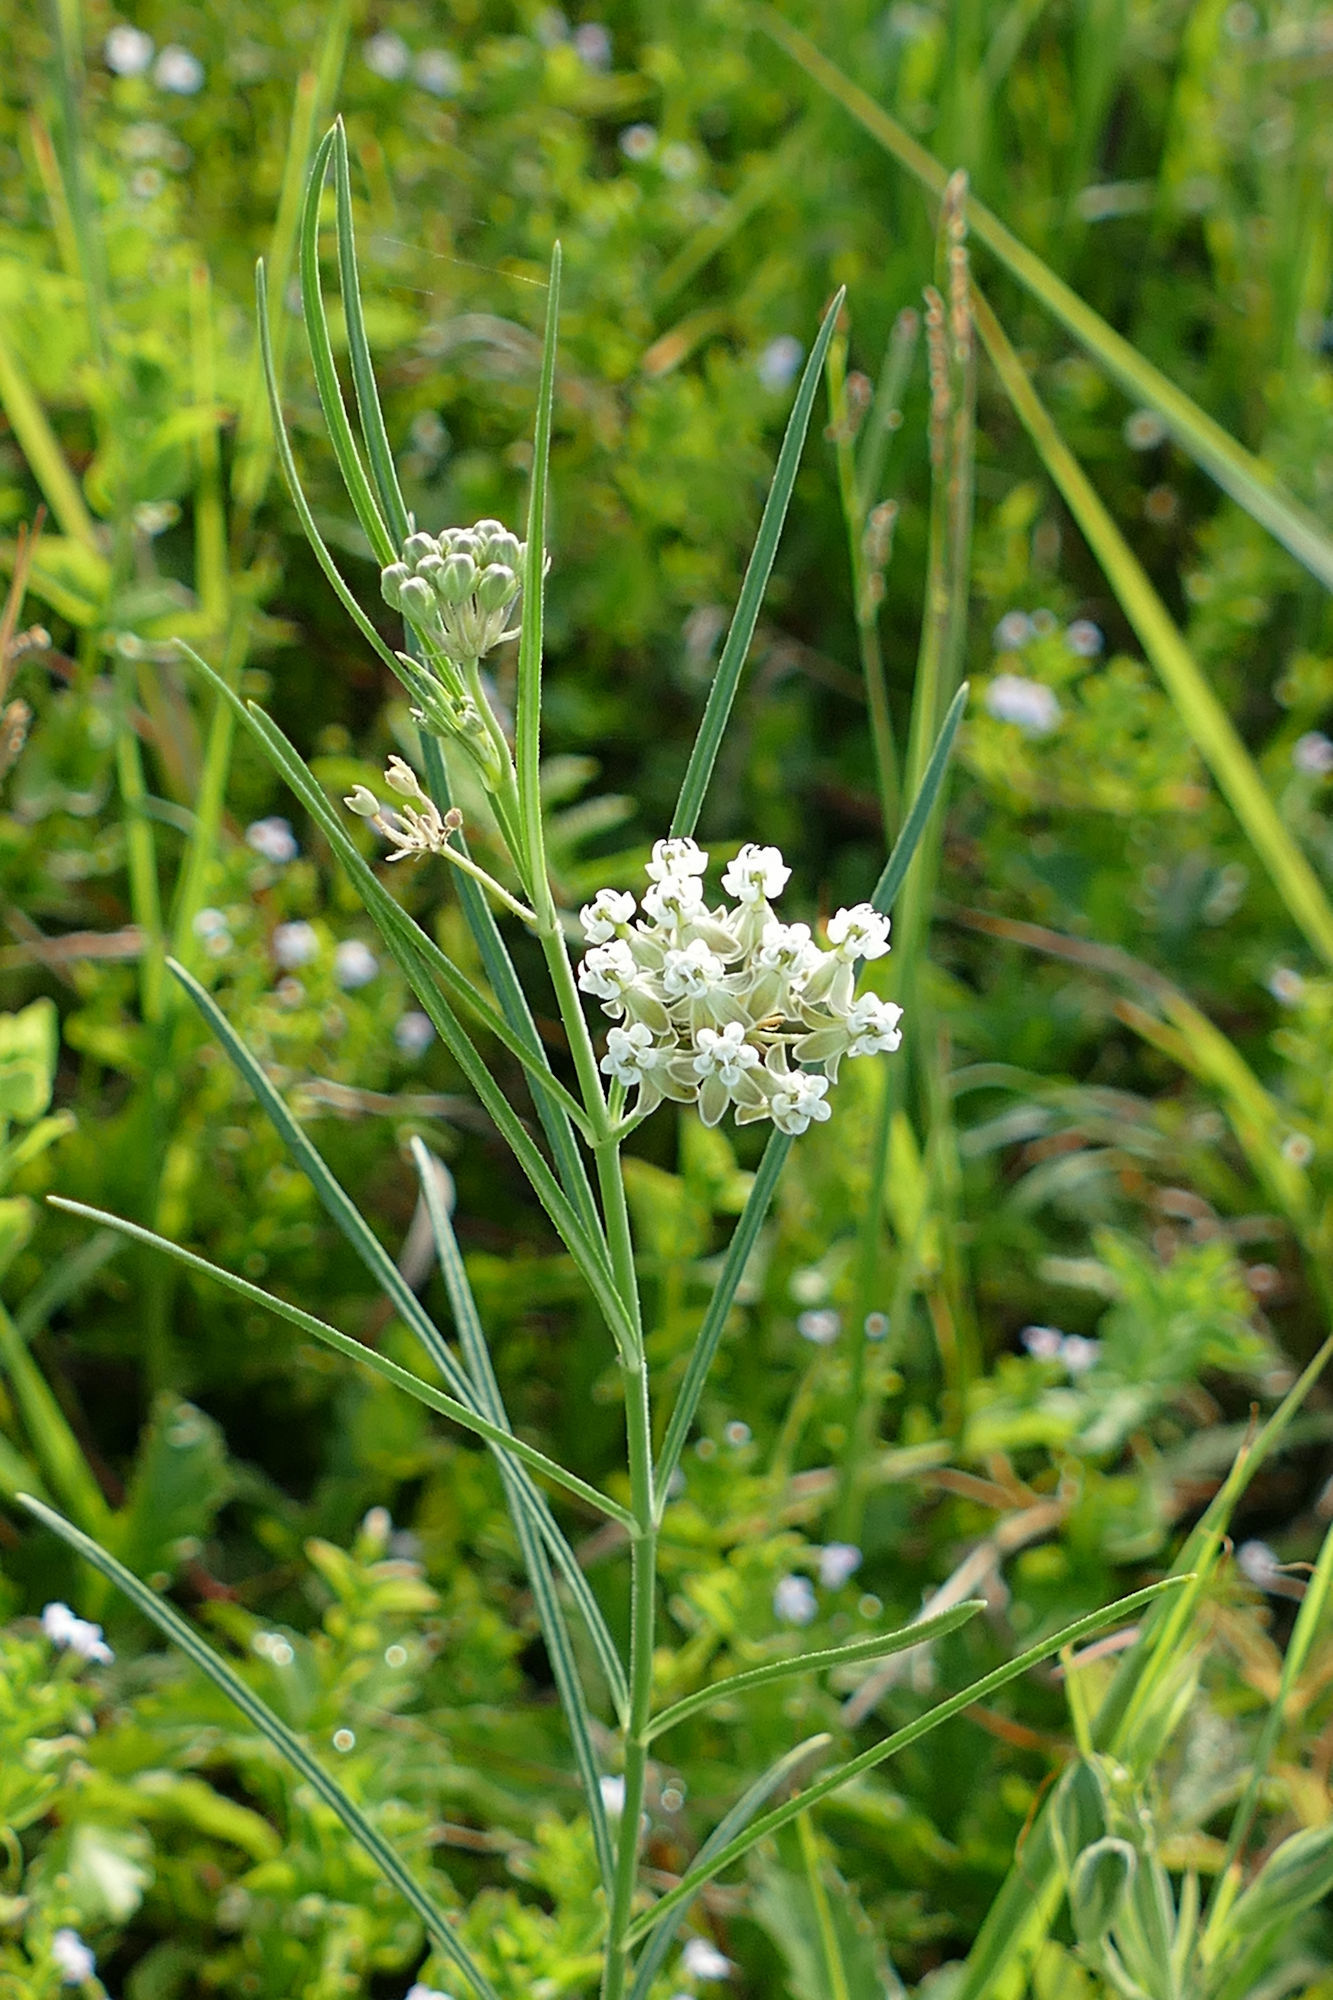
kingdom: Plantae
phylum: Tracheophyta
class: Magnoliopsida
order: Gentianales
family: Apocynaceae
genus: Asclepias
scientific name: Asclepias linearis
